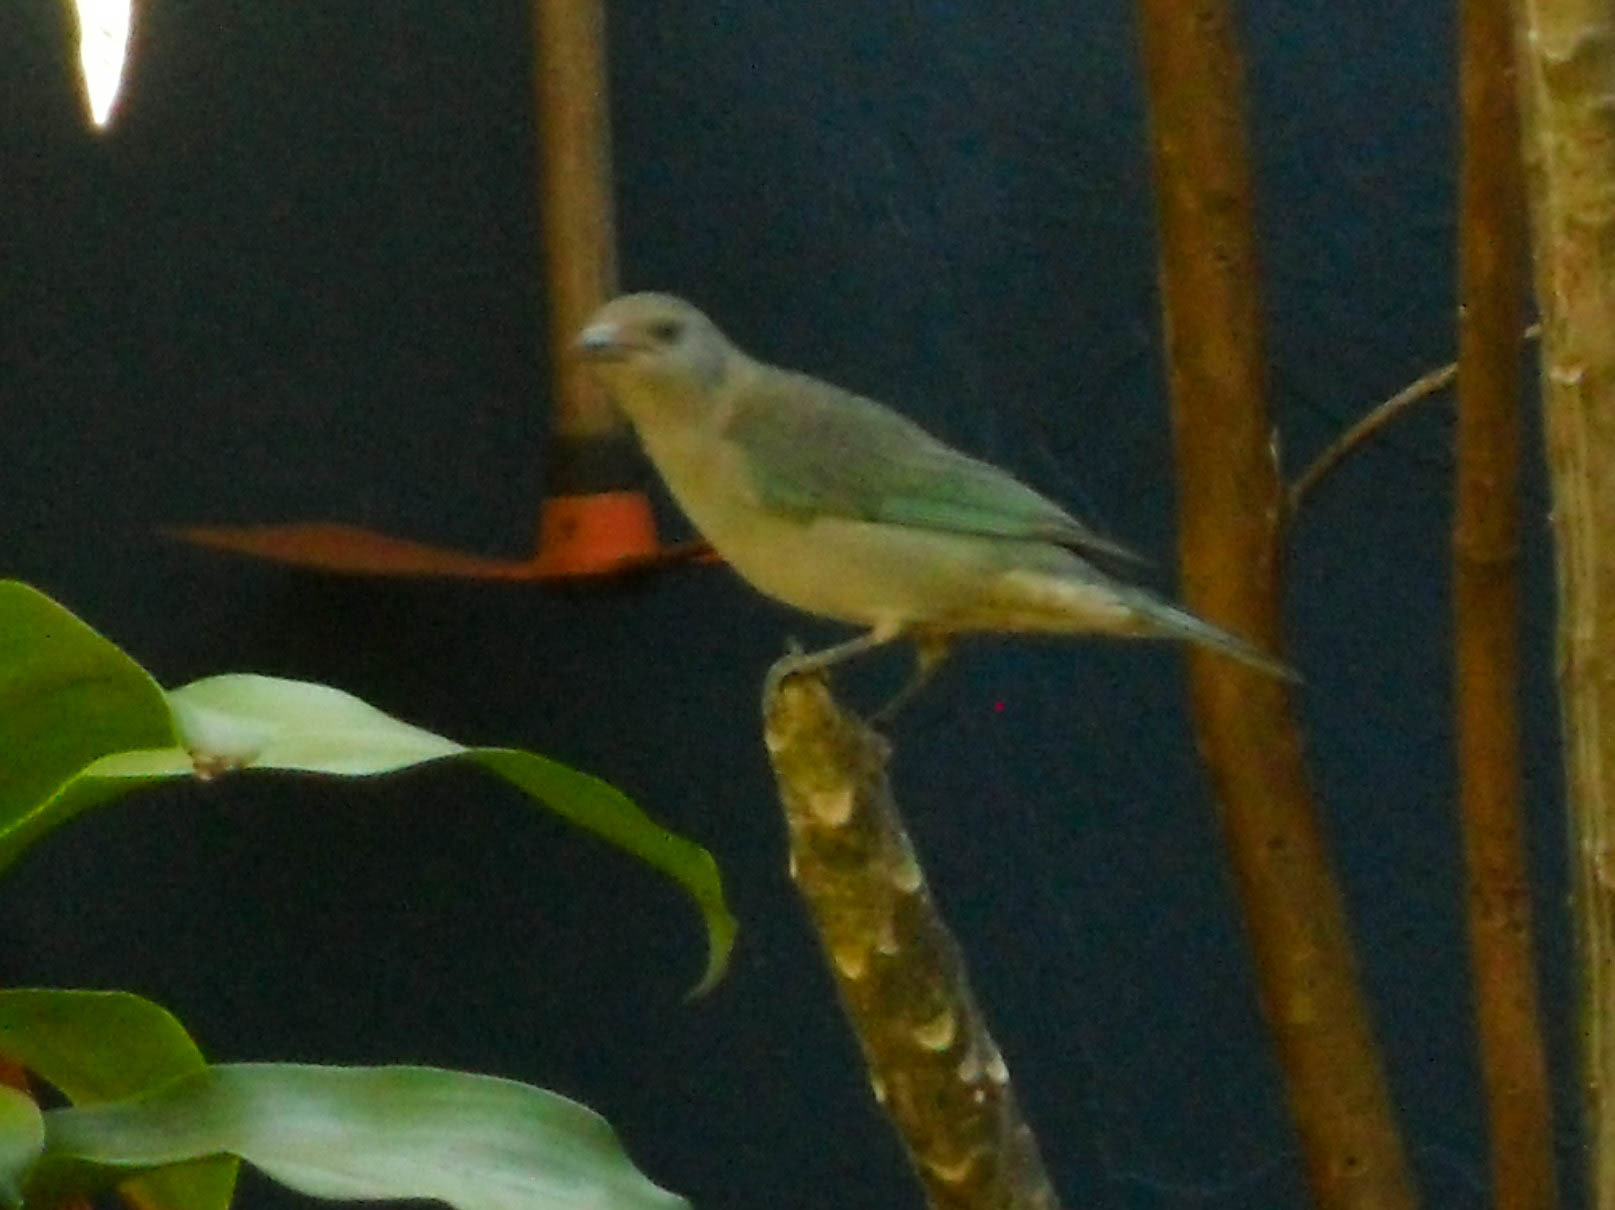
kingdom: Animalia
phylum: Chordata
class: Aves
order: Passeriformes
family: Thraupidae
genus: Thraupis
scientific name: Thraupis sayaca
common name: Sayaca tanager
